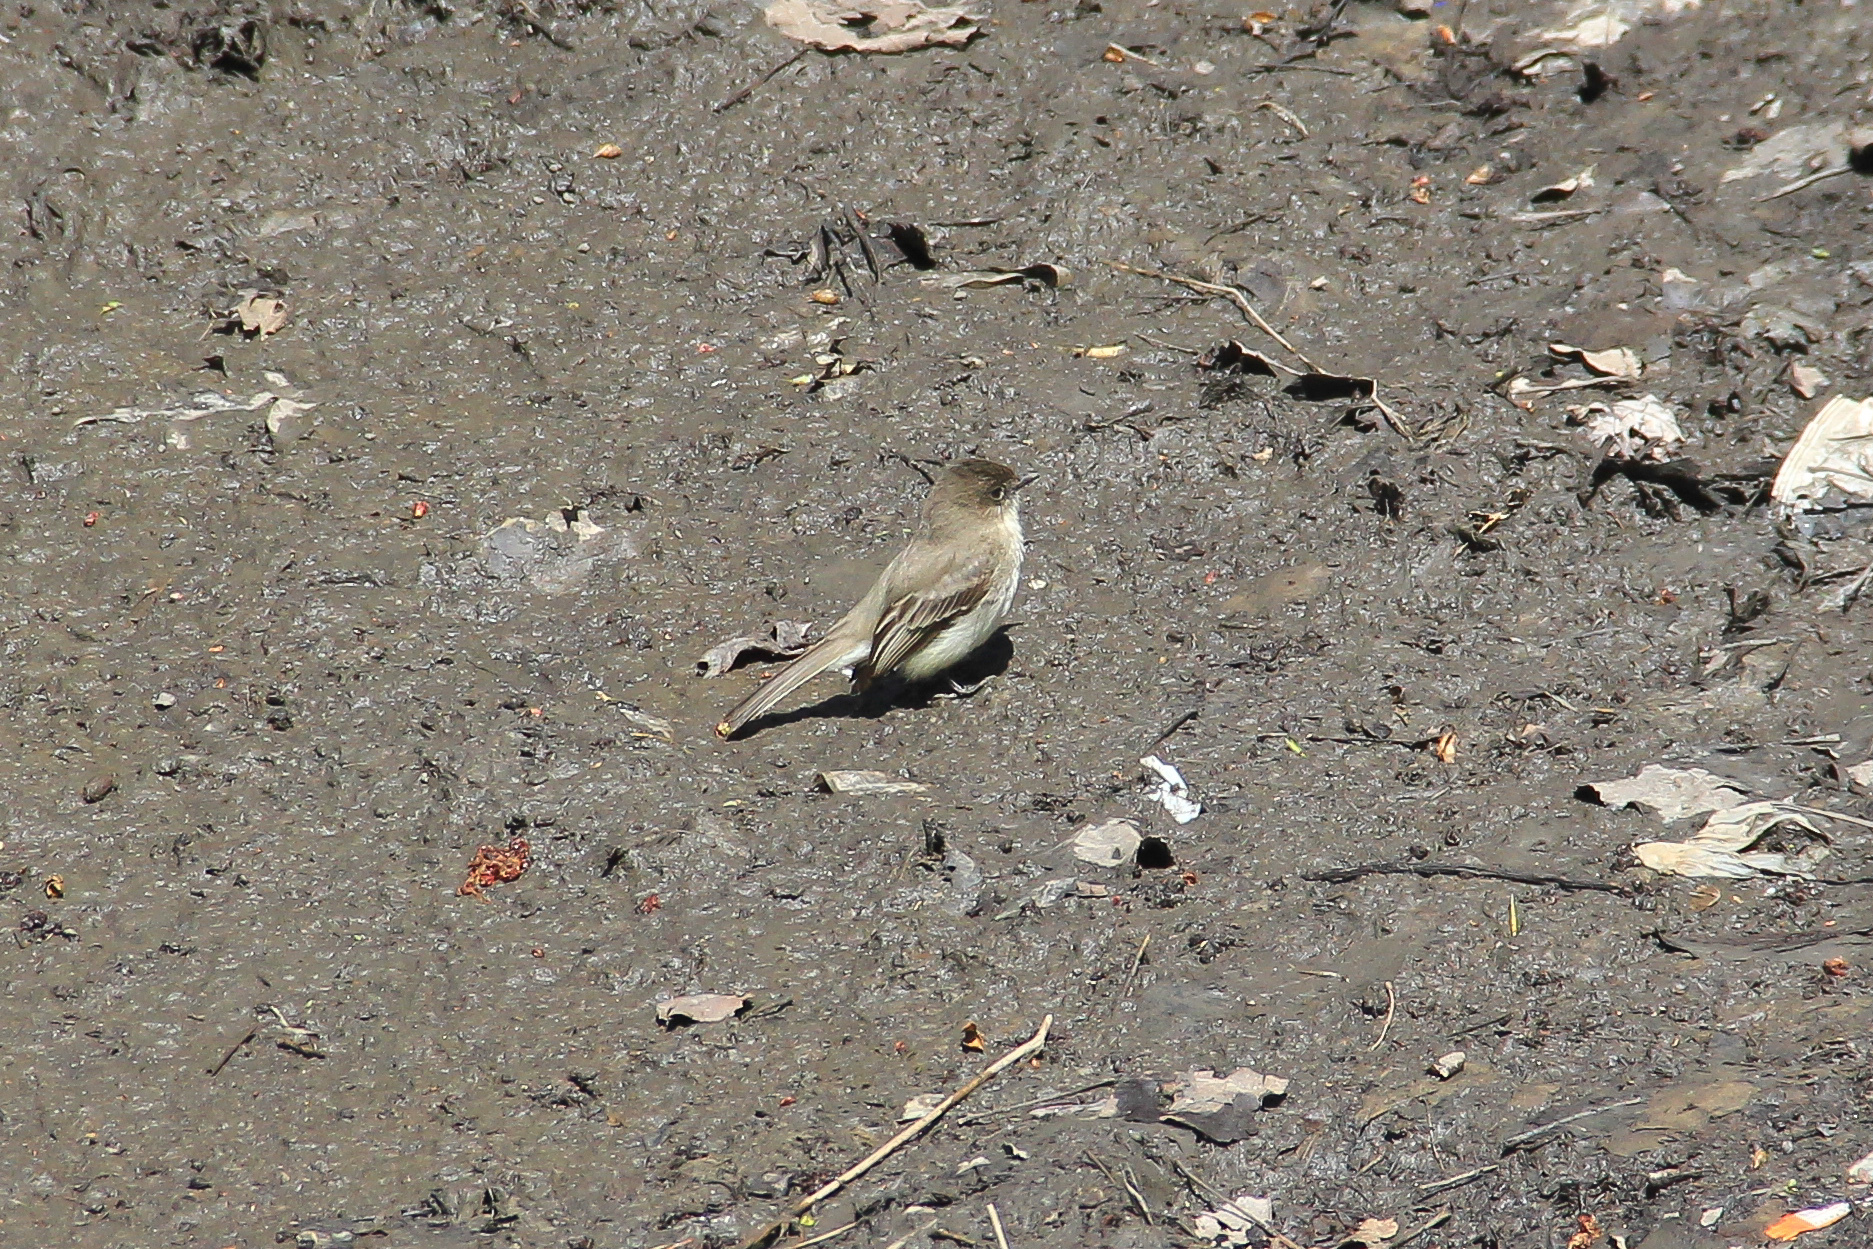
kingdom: Animalia
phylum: Chordata
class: Aves
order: Passeriformes
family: Tyrannidae
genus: Sayornis
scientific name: Sayornis phoebe
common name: Eastern phoebe
